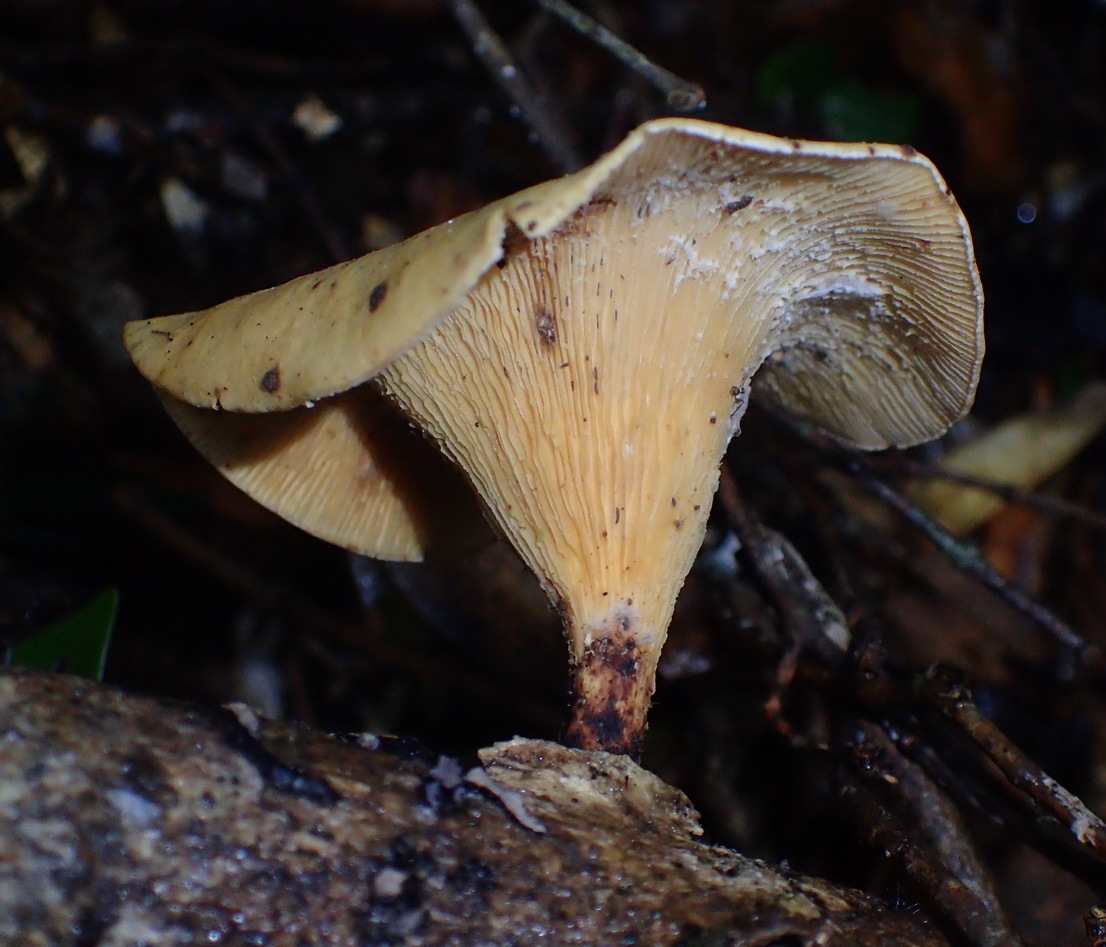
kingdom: Fungi
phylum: Basidiomycota
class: Agaricomycetes
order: Polyporales
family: Polyporaceae
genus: Lentinus
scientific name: Lentinus sajor-caju
